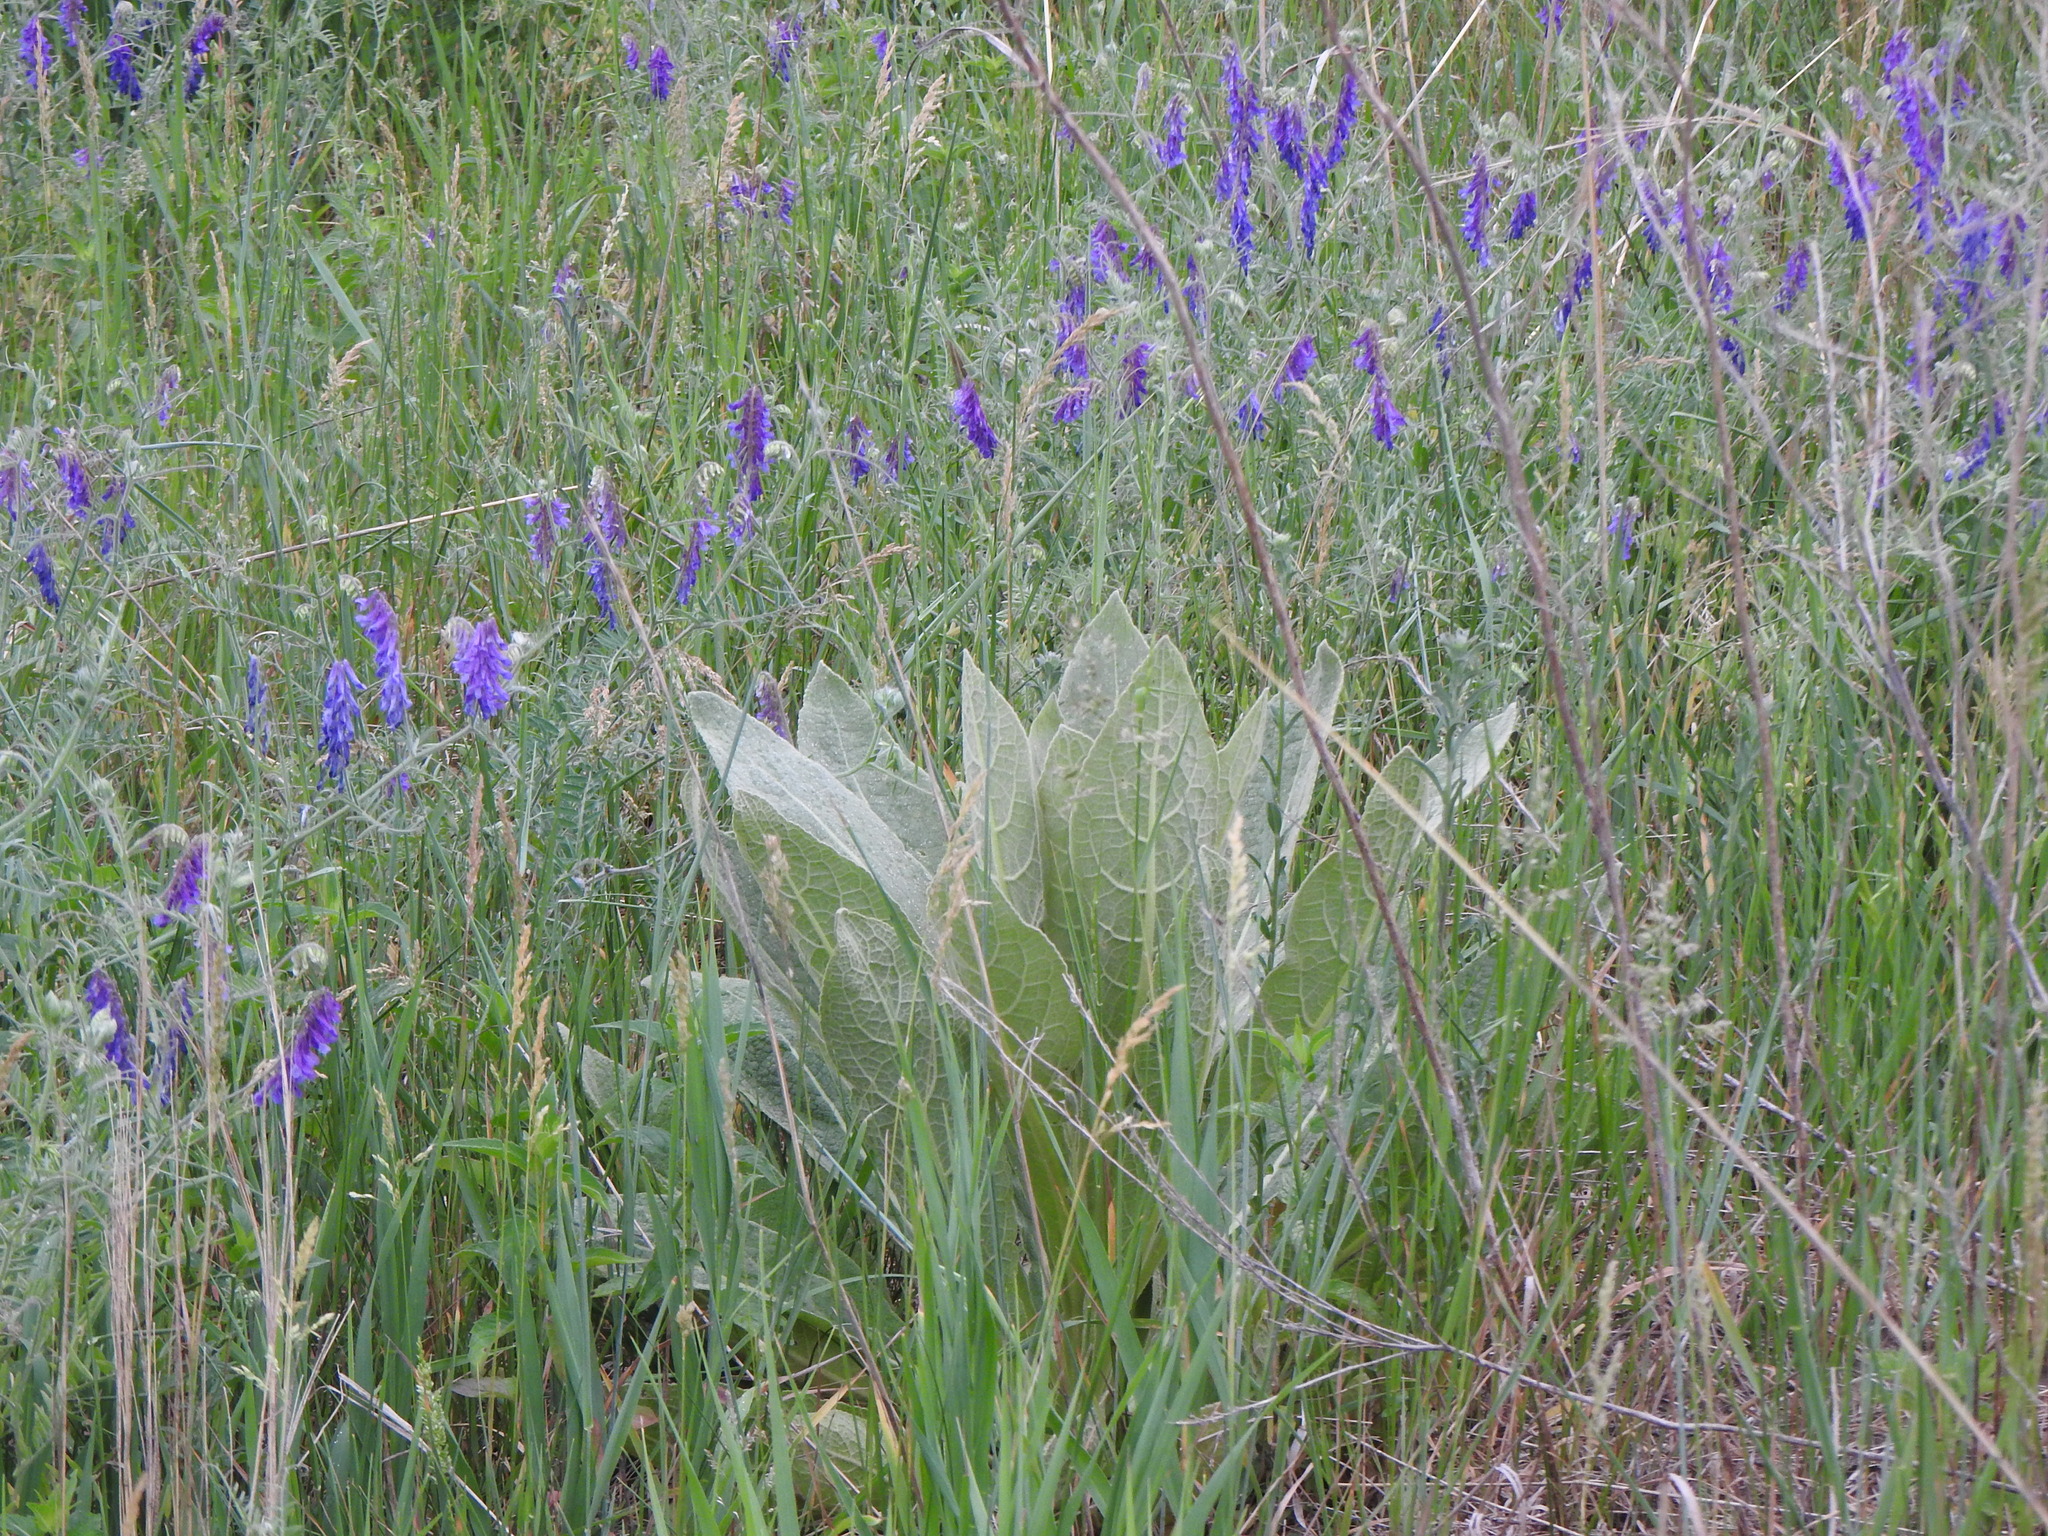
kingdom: Plantae
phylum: Tracheophyta
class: Magnoliopsida
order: Lamiales
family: Scrophulariaceae
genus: Verbascum
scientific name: Verbascum thapsus
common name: Common mullein
